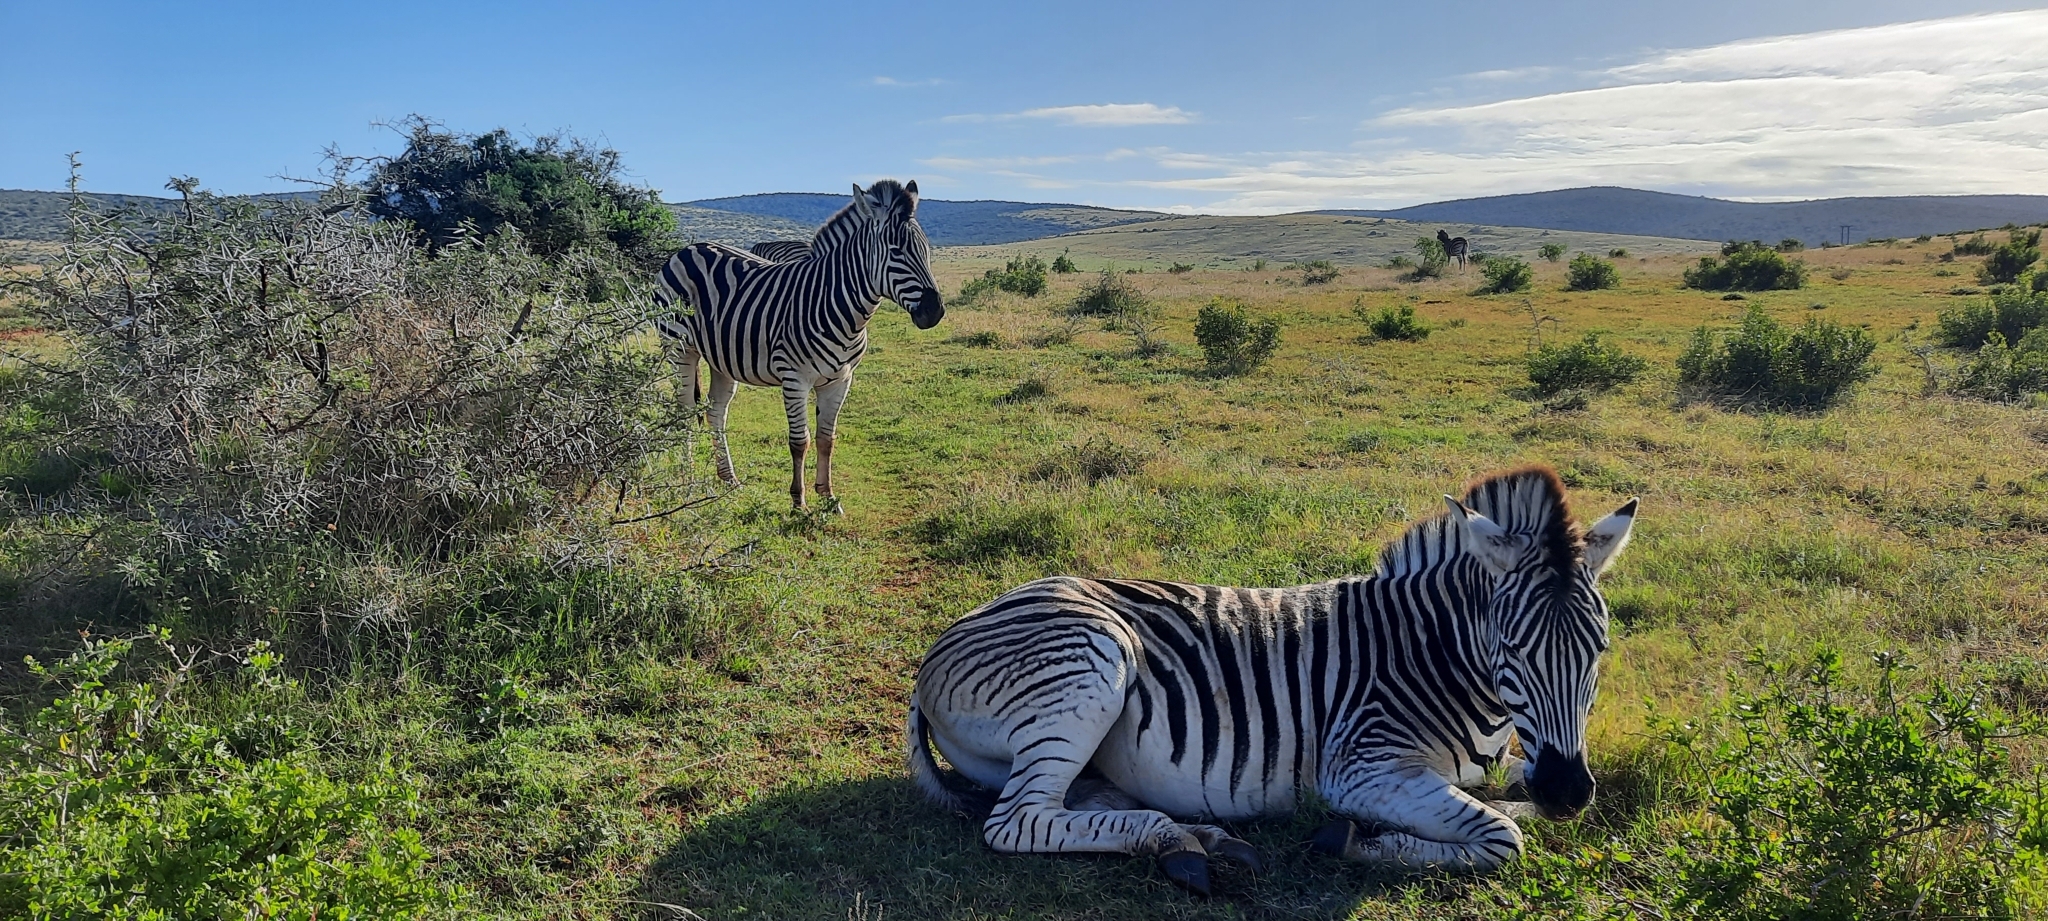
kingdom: Animalia
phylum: Chordata
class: Mammalia
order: Perissodactyla
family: Equidae
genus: Equus
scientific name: Equus quagga
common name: Plains zebra
